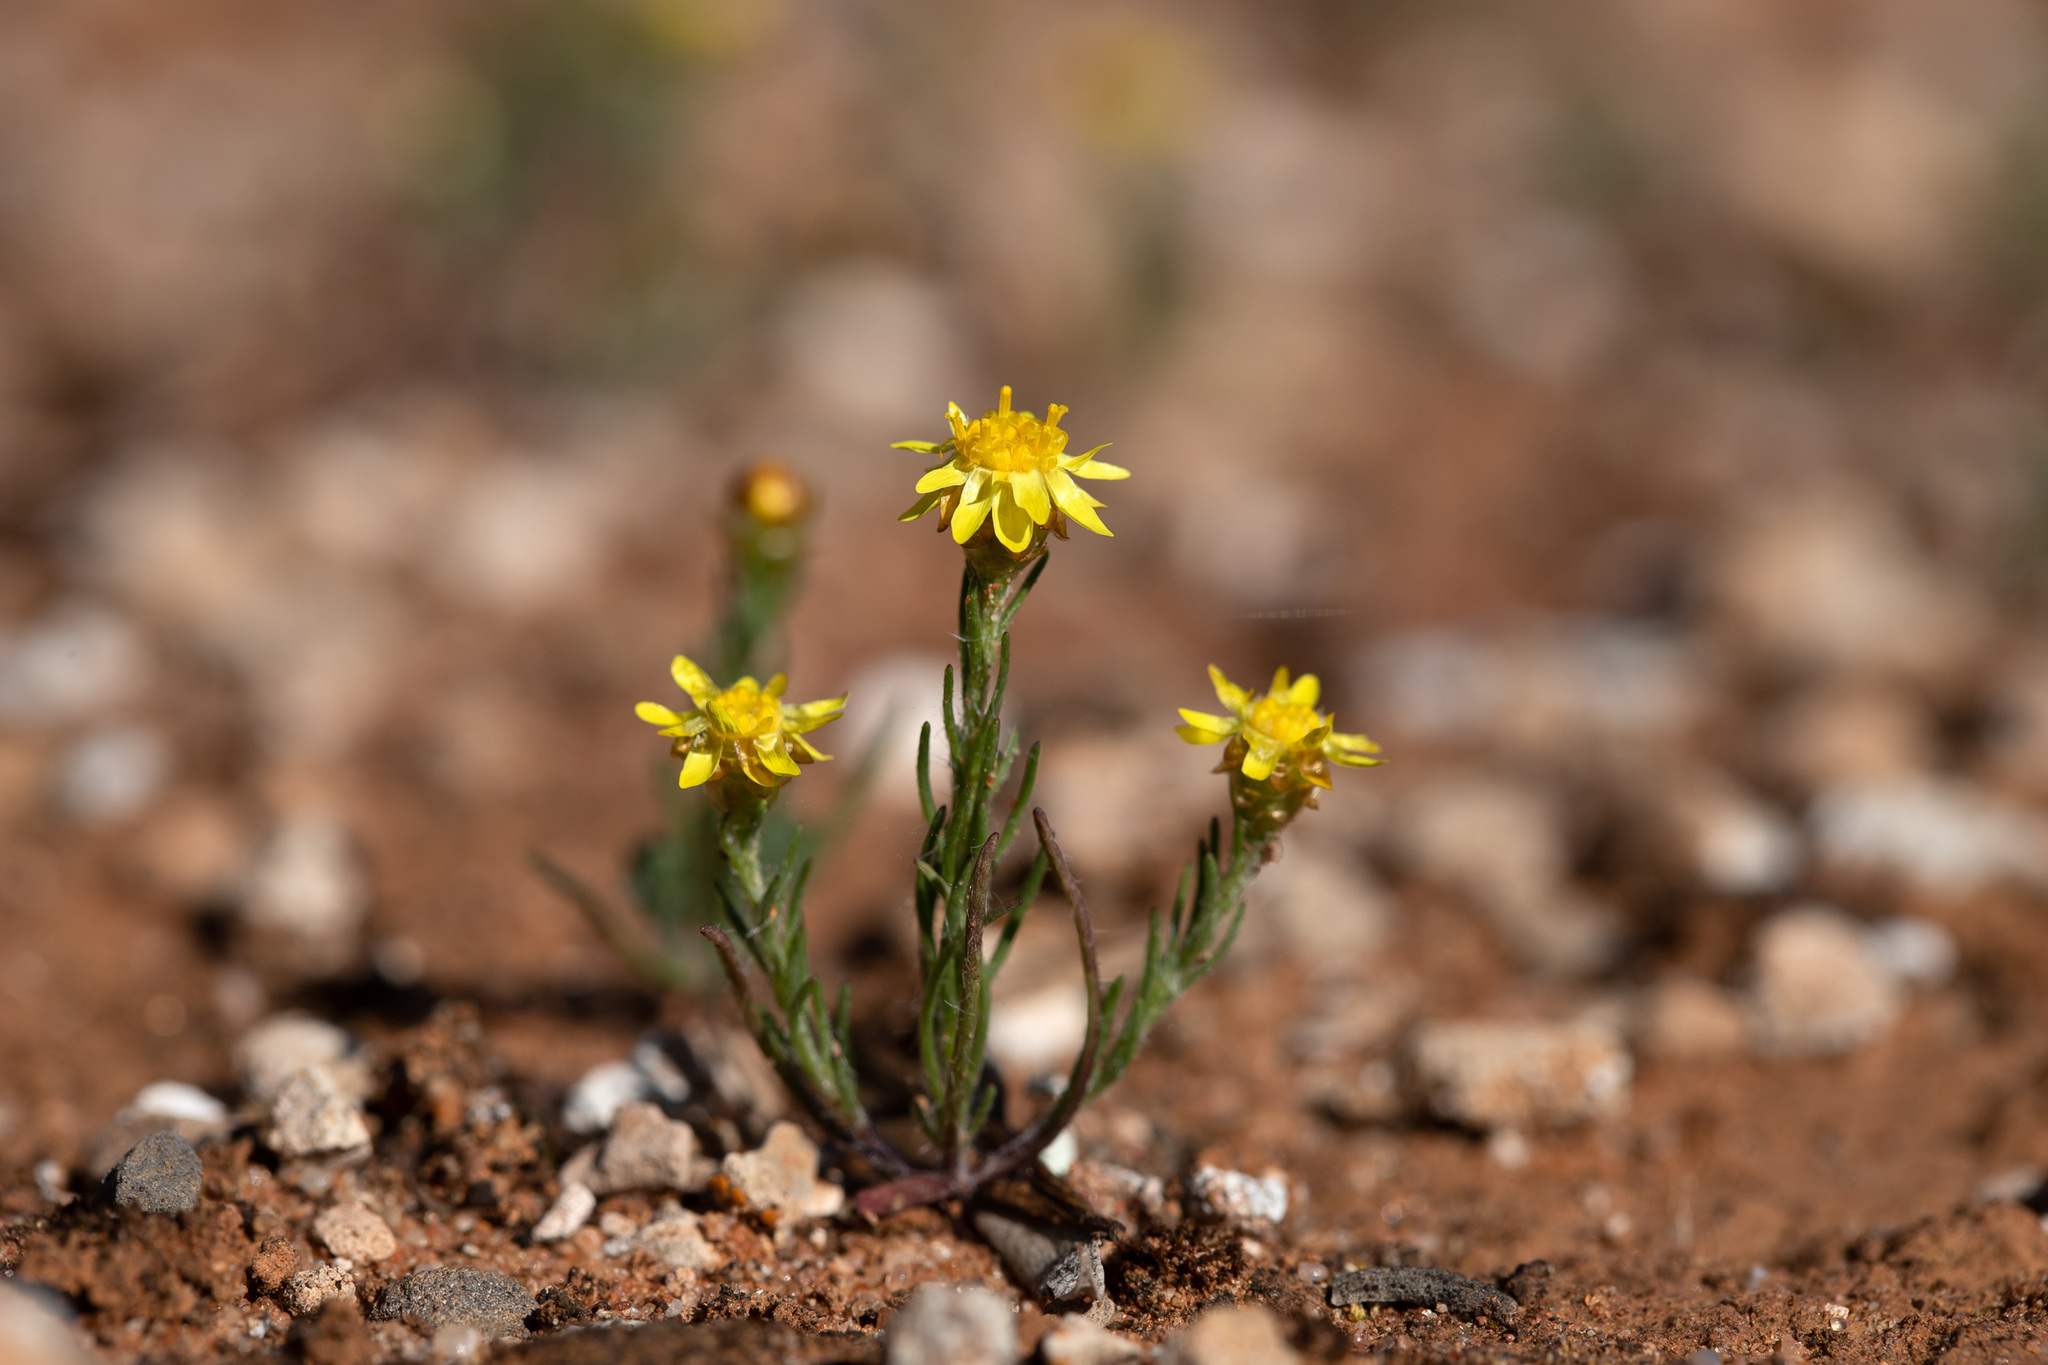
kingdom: Plantae
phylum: Tracheophyta
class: Magnoliopsida
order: Asterales
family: Asteraceae
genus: Hyalosperma
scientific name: Hyalosperma semisterile
